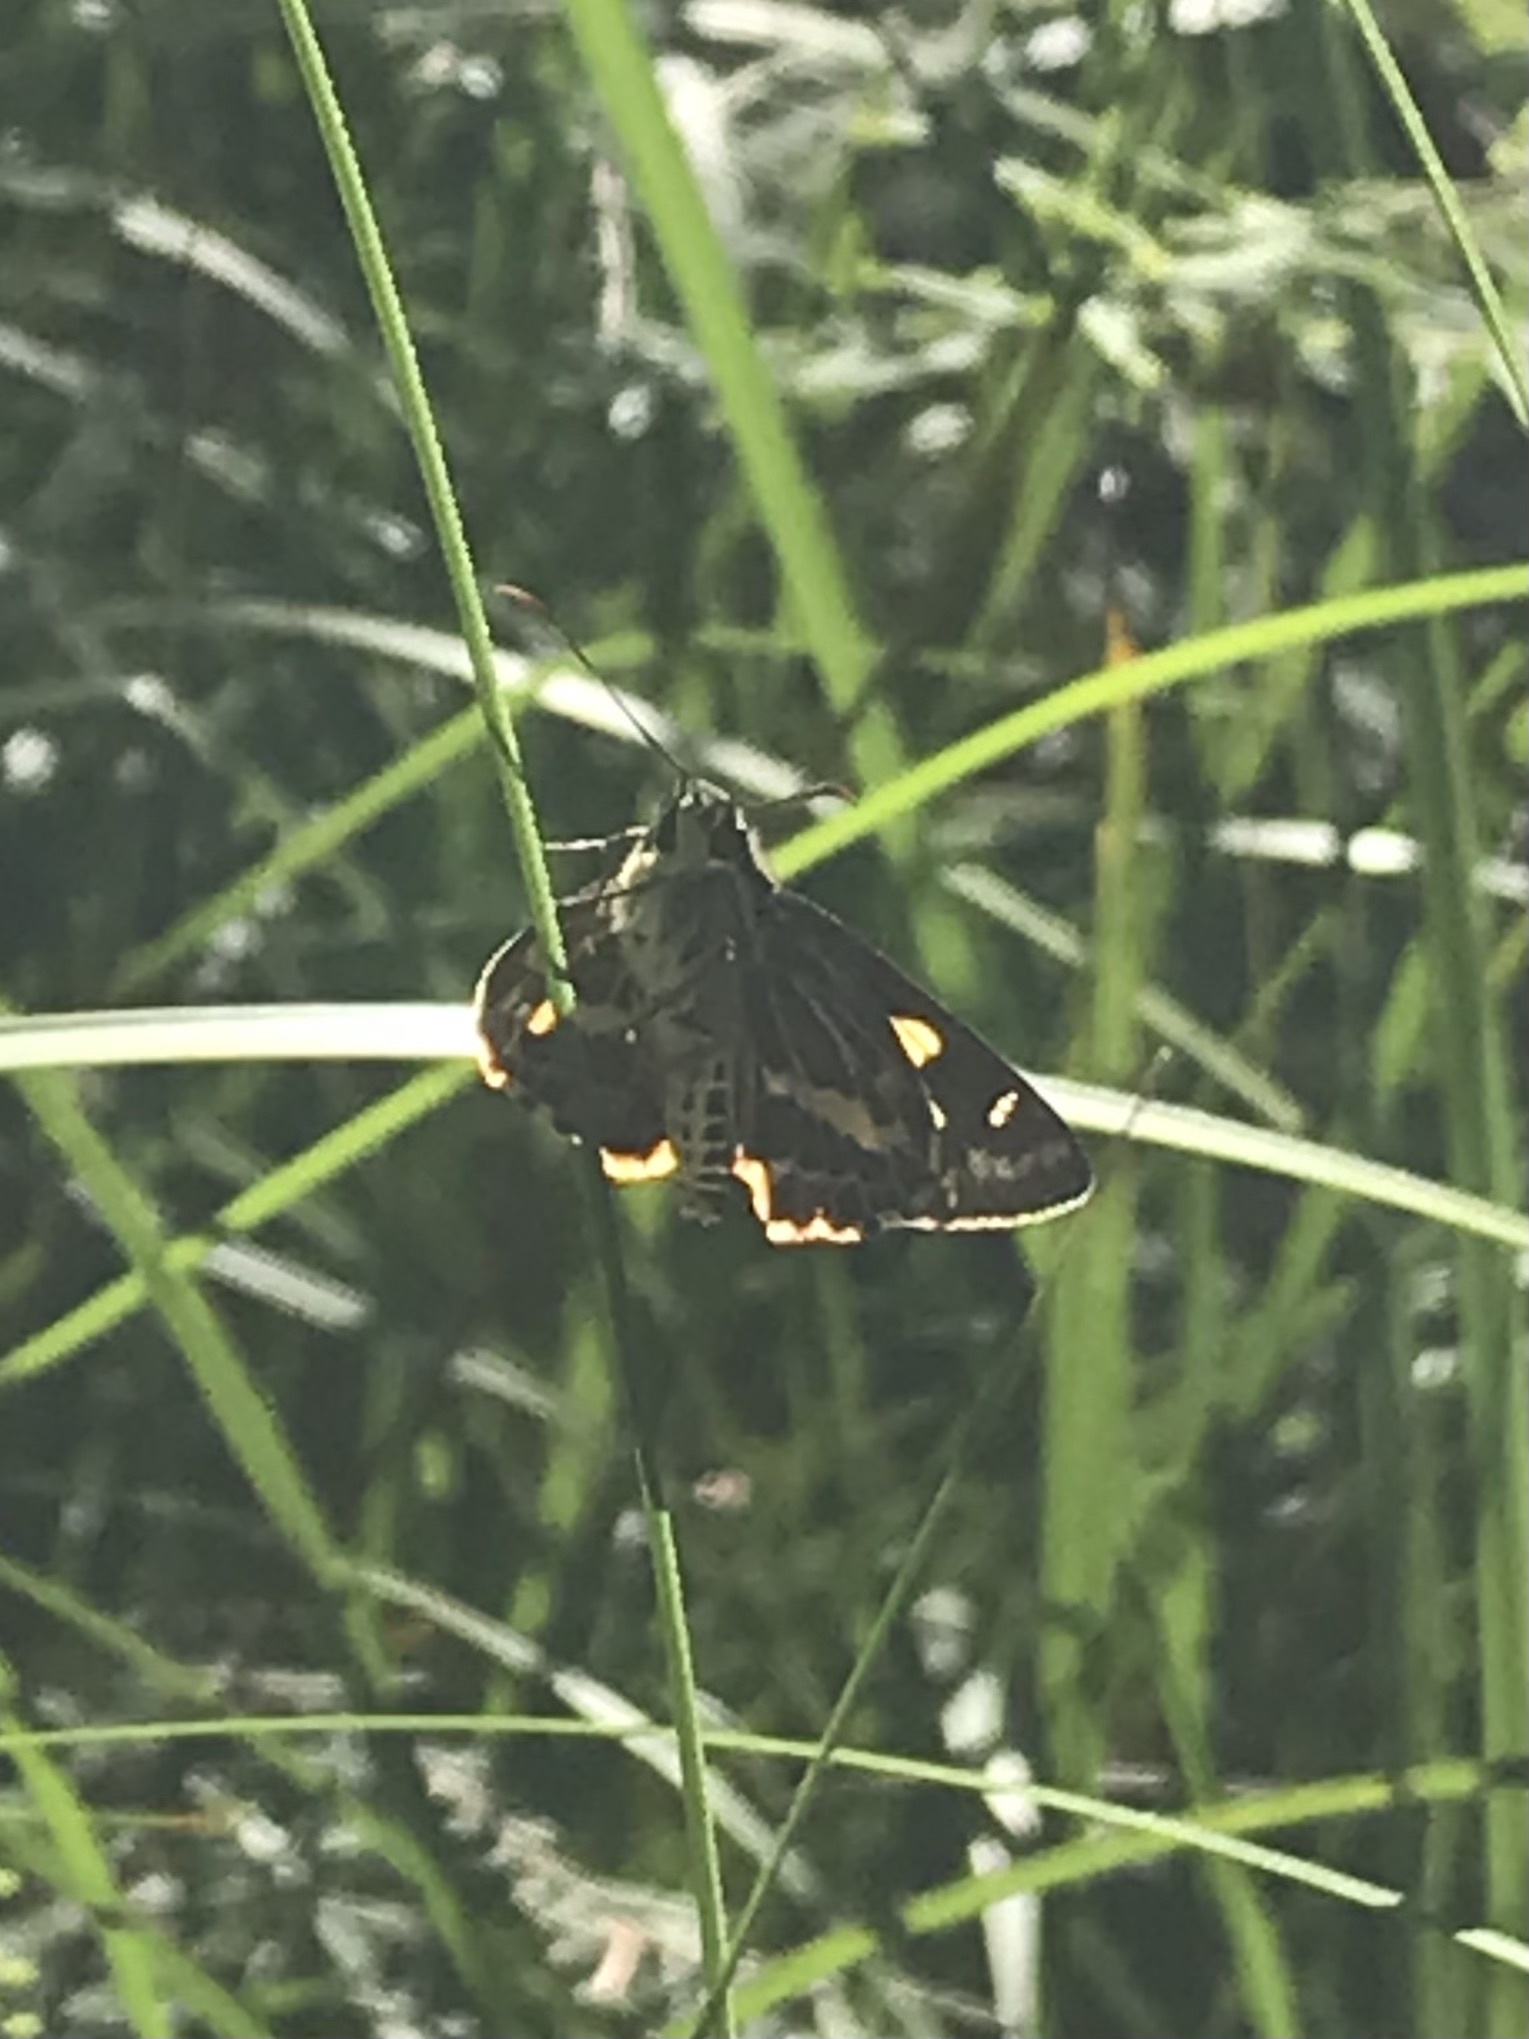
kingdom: Animalia
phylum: Arthropoda
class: Insecta
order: Lepidoptera
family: Hesperiidae
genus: Hesperilla
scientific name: Hesperilla picta
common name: Painted sedge-skipper
